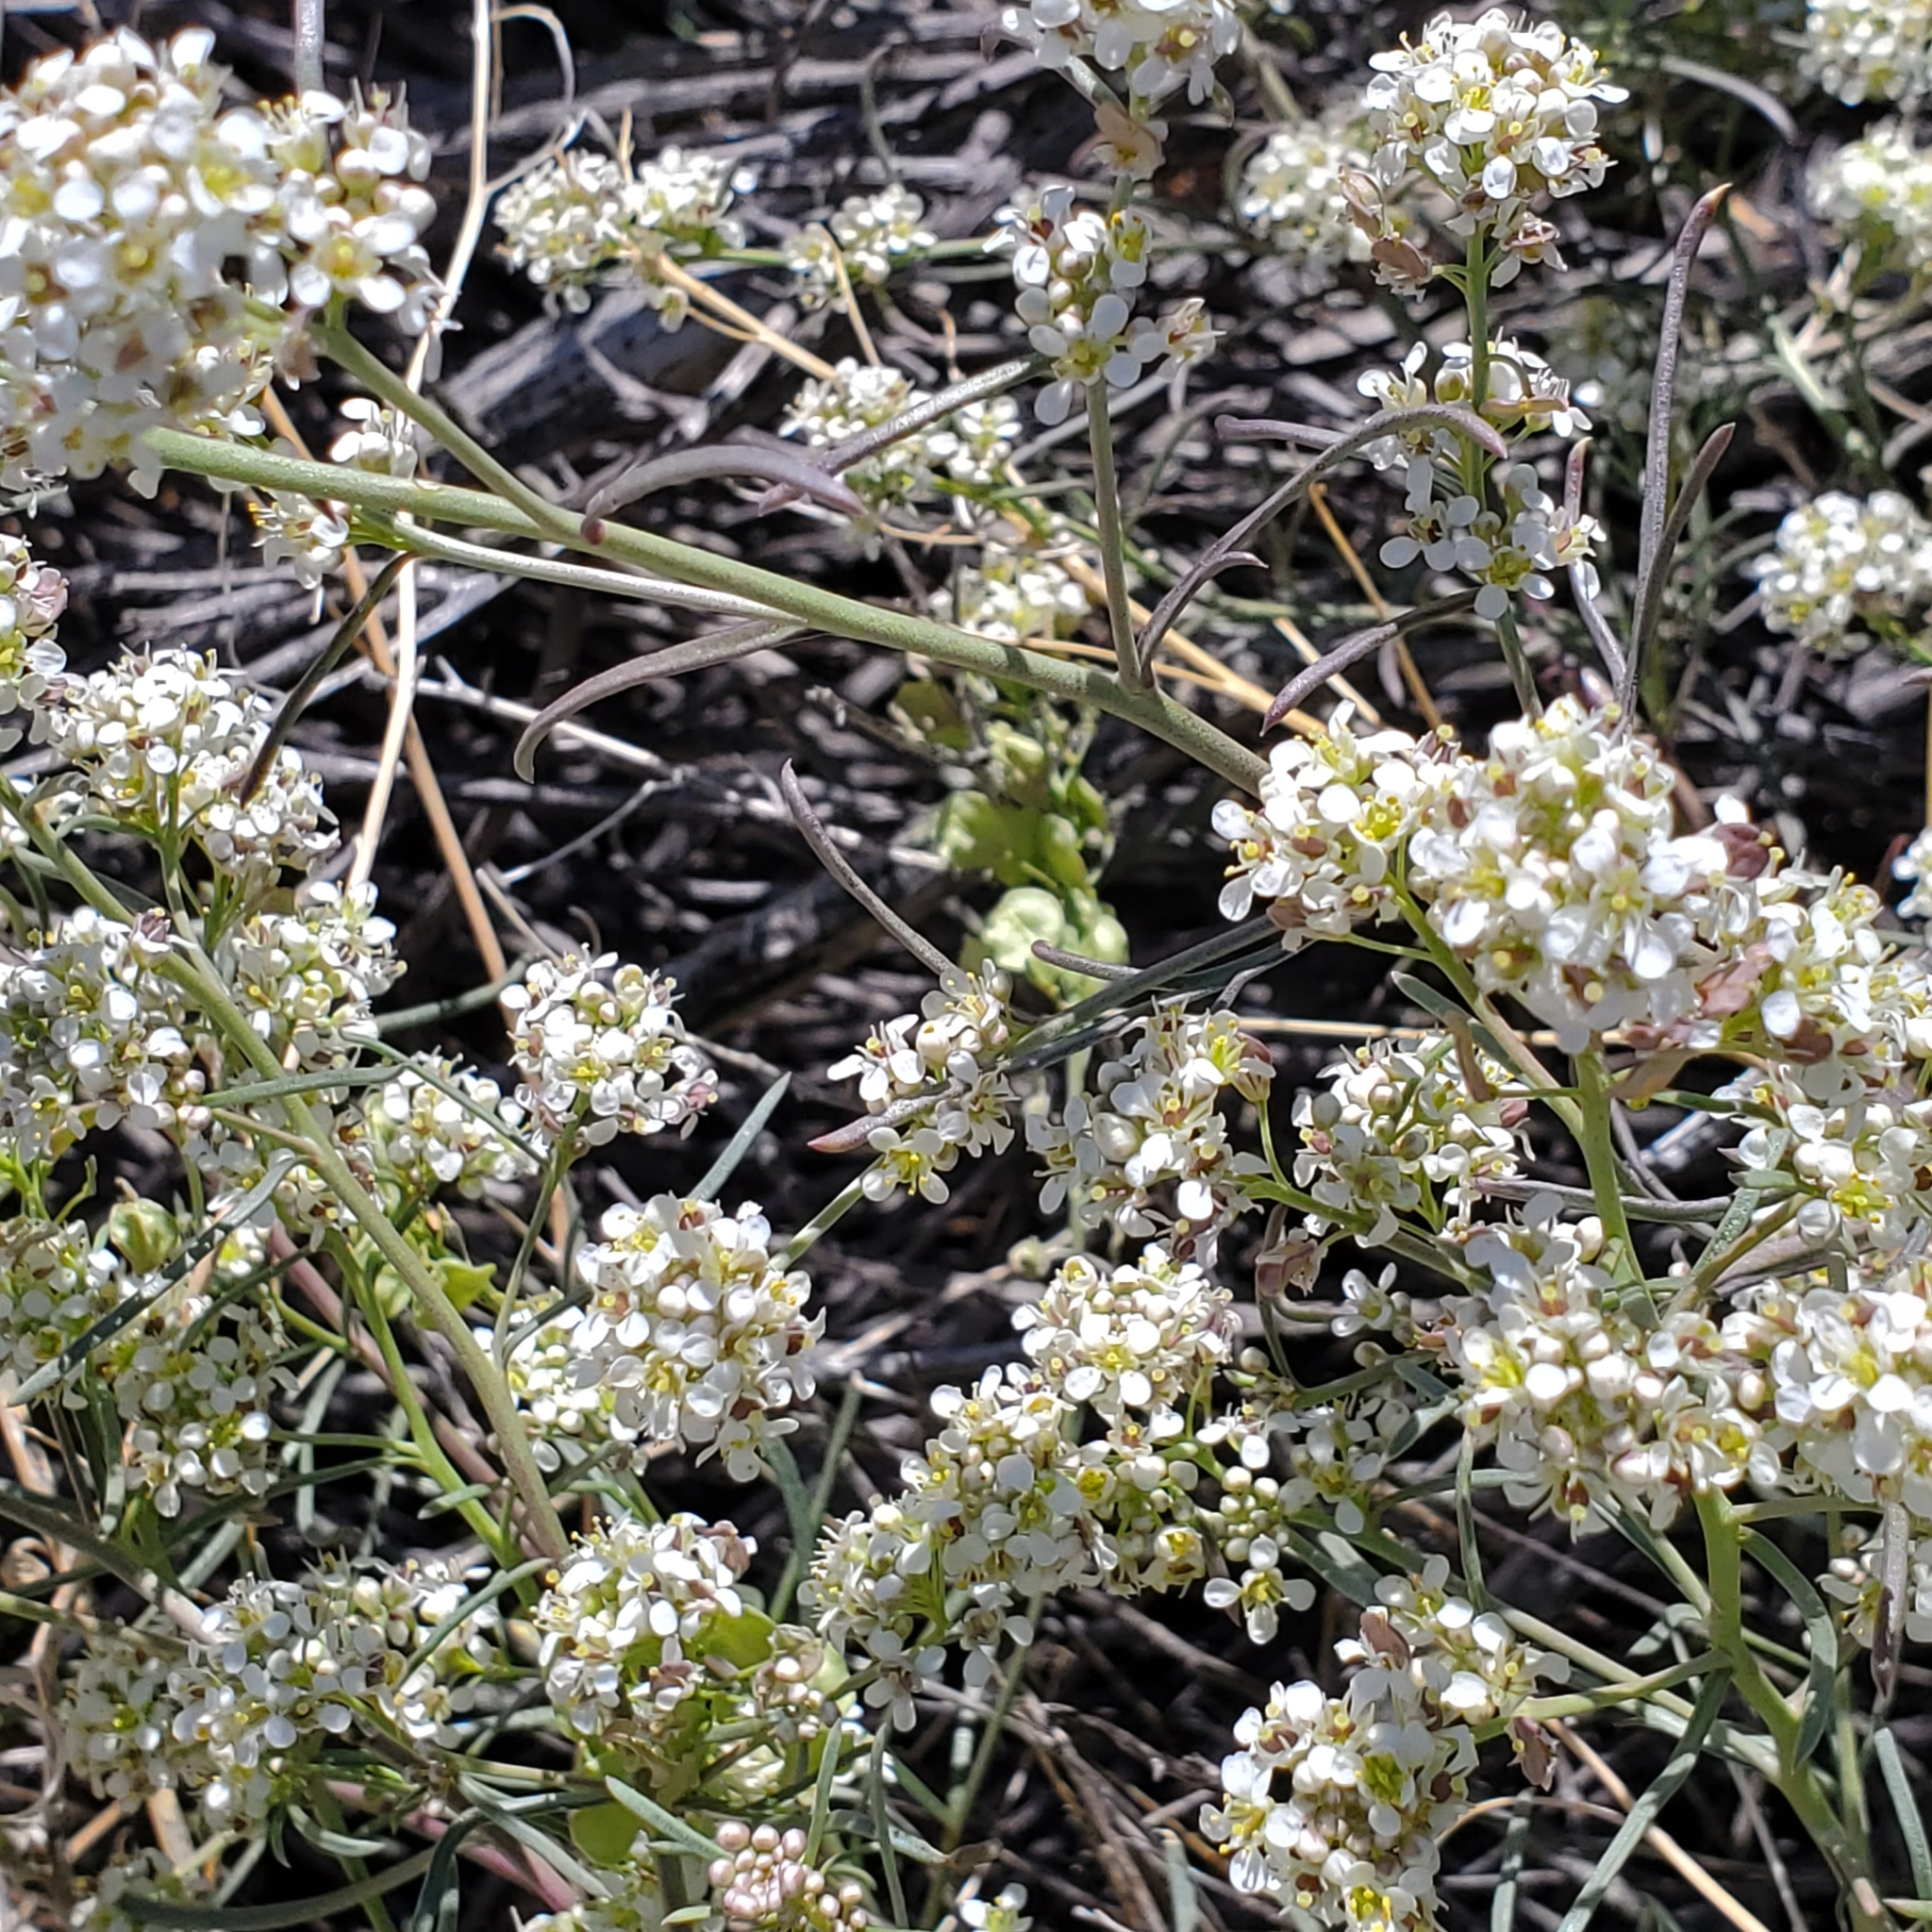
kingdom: Plantae
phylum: Tracheophyta
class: Magnoliopsida
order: Brassicales
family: Brassicaceae
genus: Lepidium
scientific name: Lepidium fremontii
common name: Fremont's pepperwort
